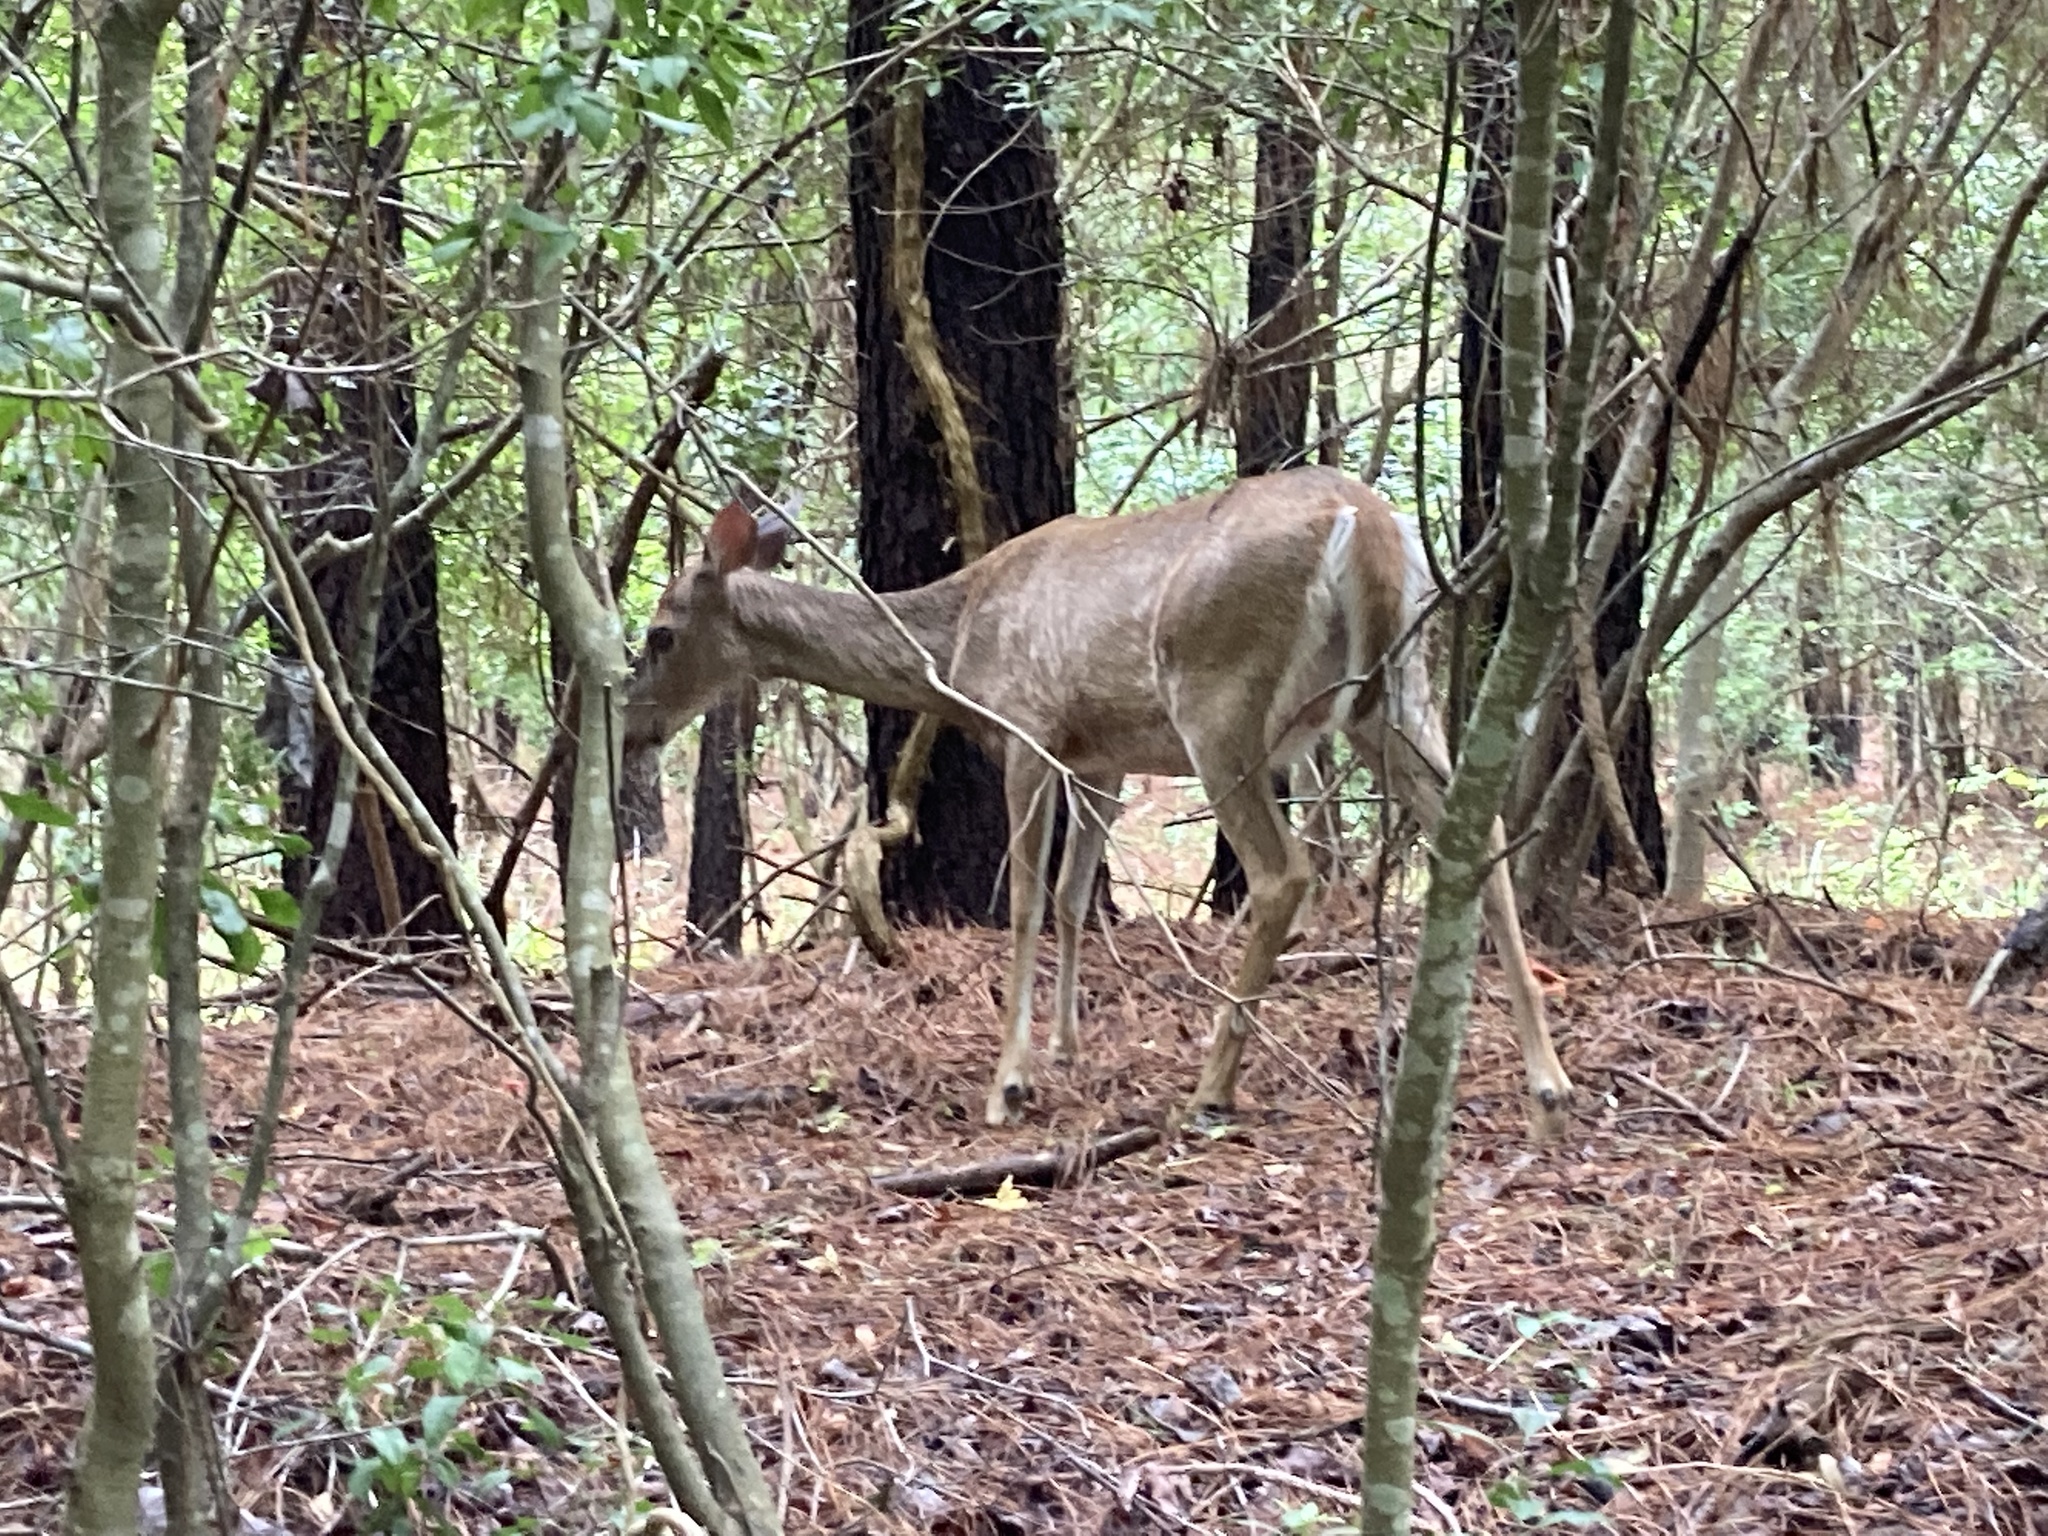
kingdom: Animalia
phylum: Chordata
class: Mammalia
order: Artiodactyla
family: Cervidae
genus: Odocoileus
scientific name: Odocoileus virginianus
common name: White-tailed deer
